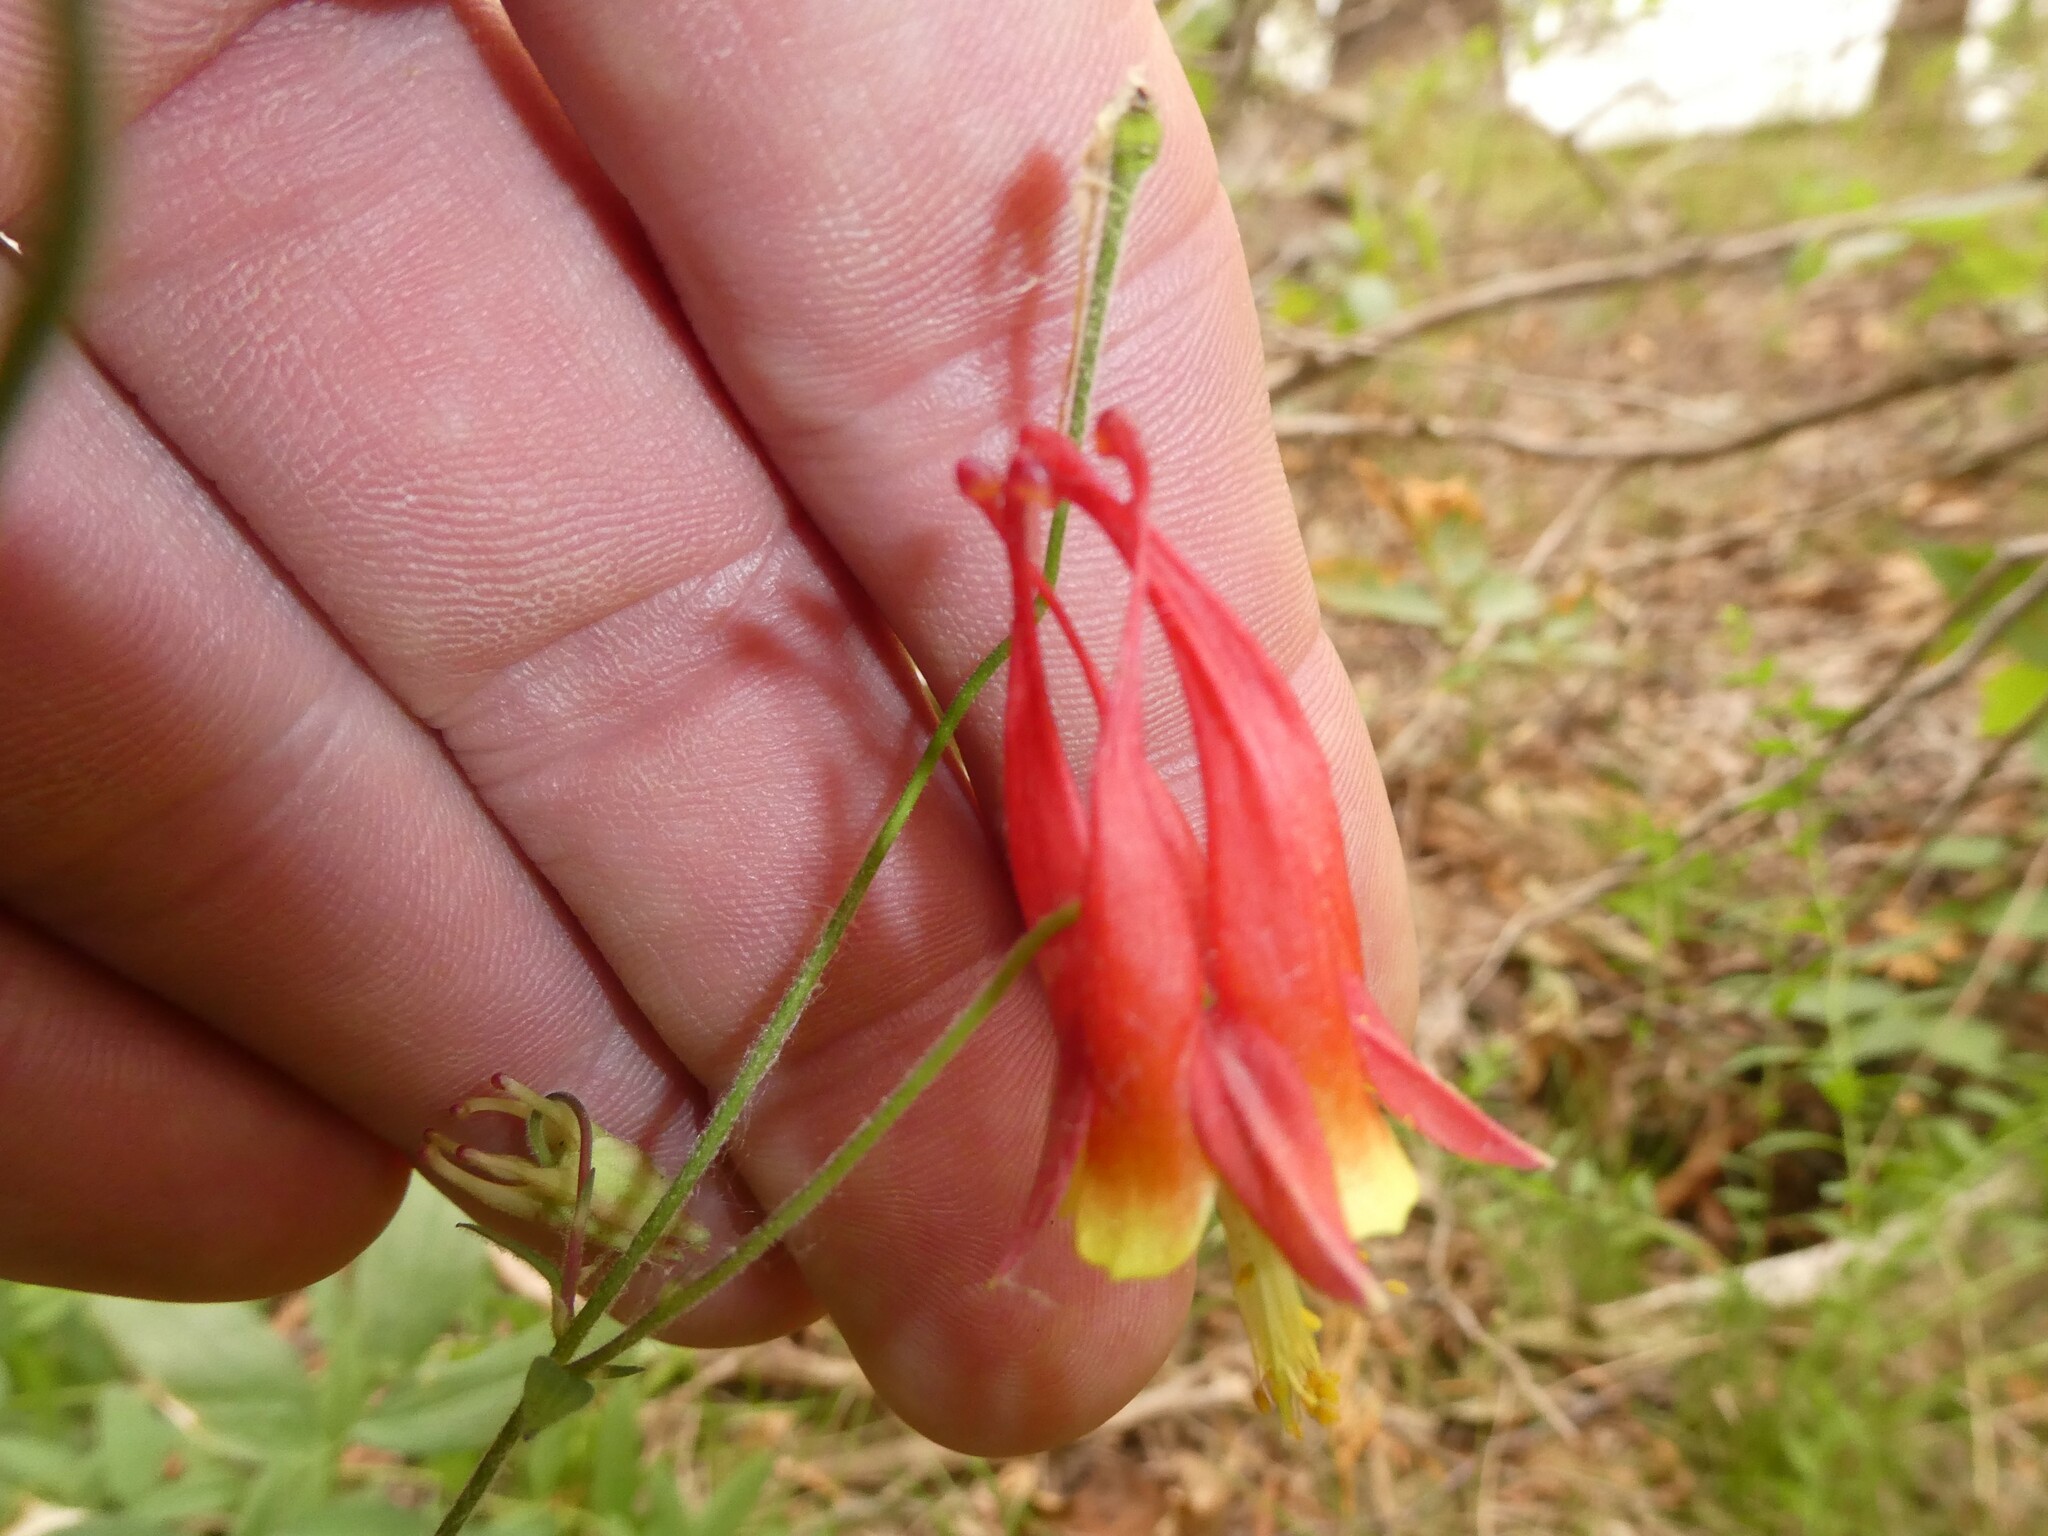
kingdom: Plantae
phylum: Tracheophyta
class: Magnoliopsida
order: Ranunculales
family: Ranunculaceae
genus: Aquilegia
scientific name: Aquilegia canadensis
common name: American columbine
